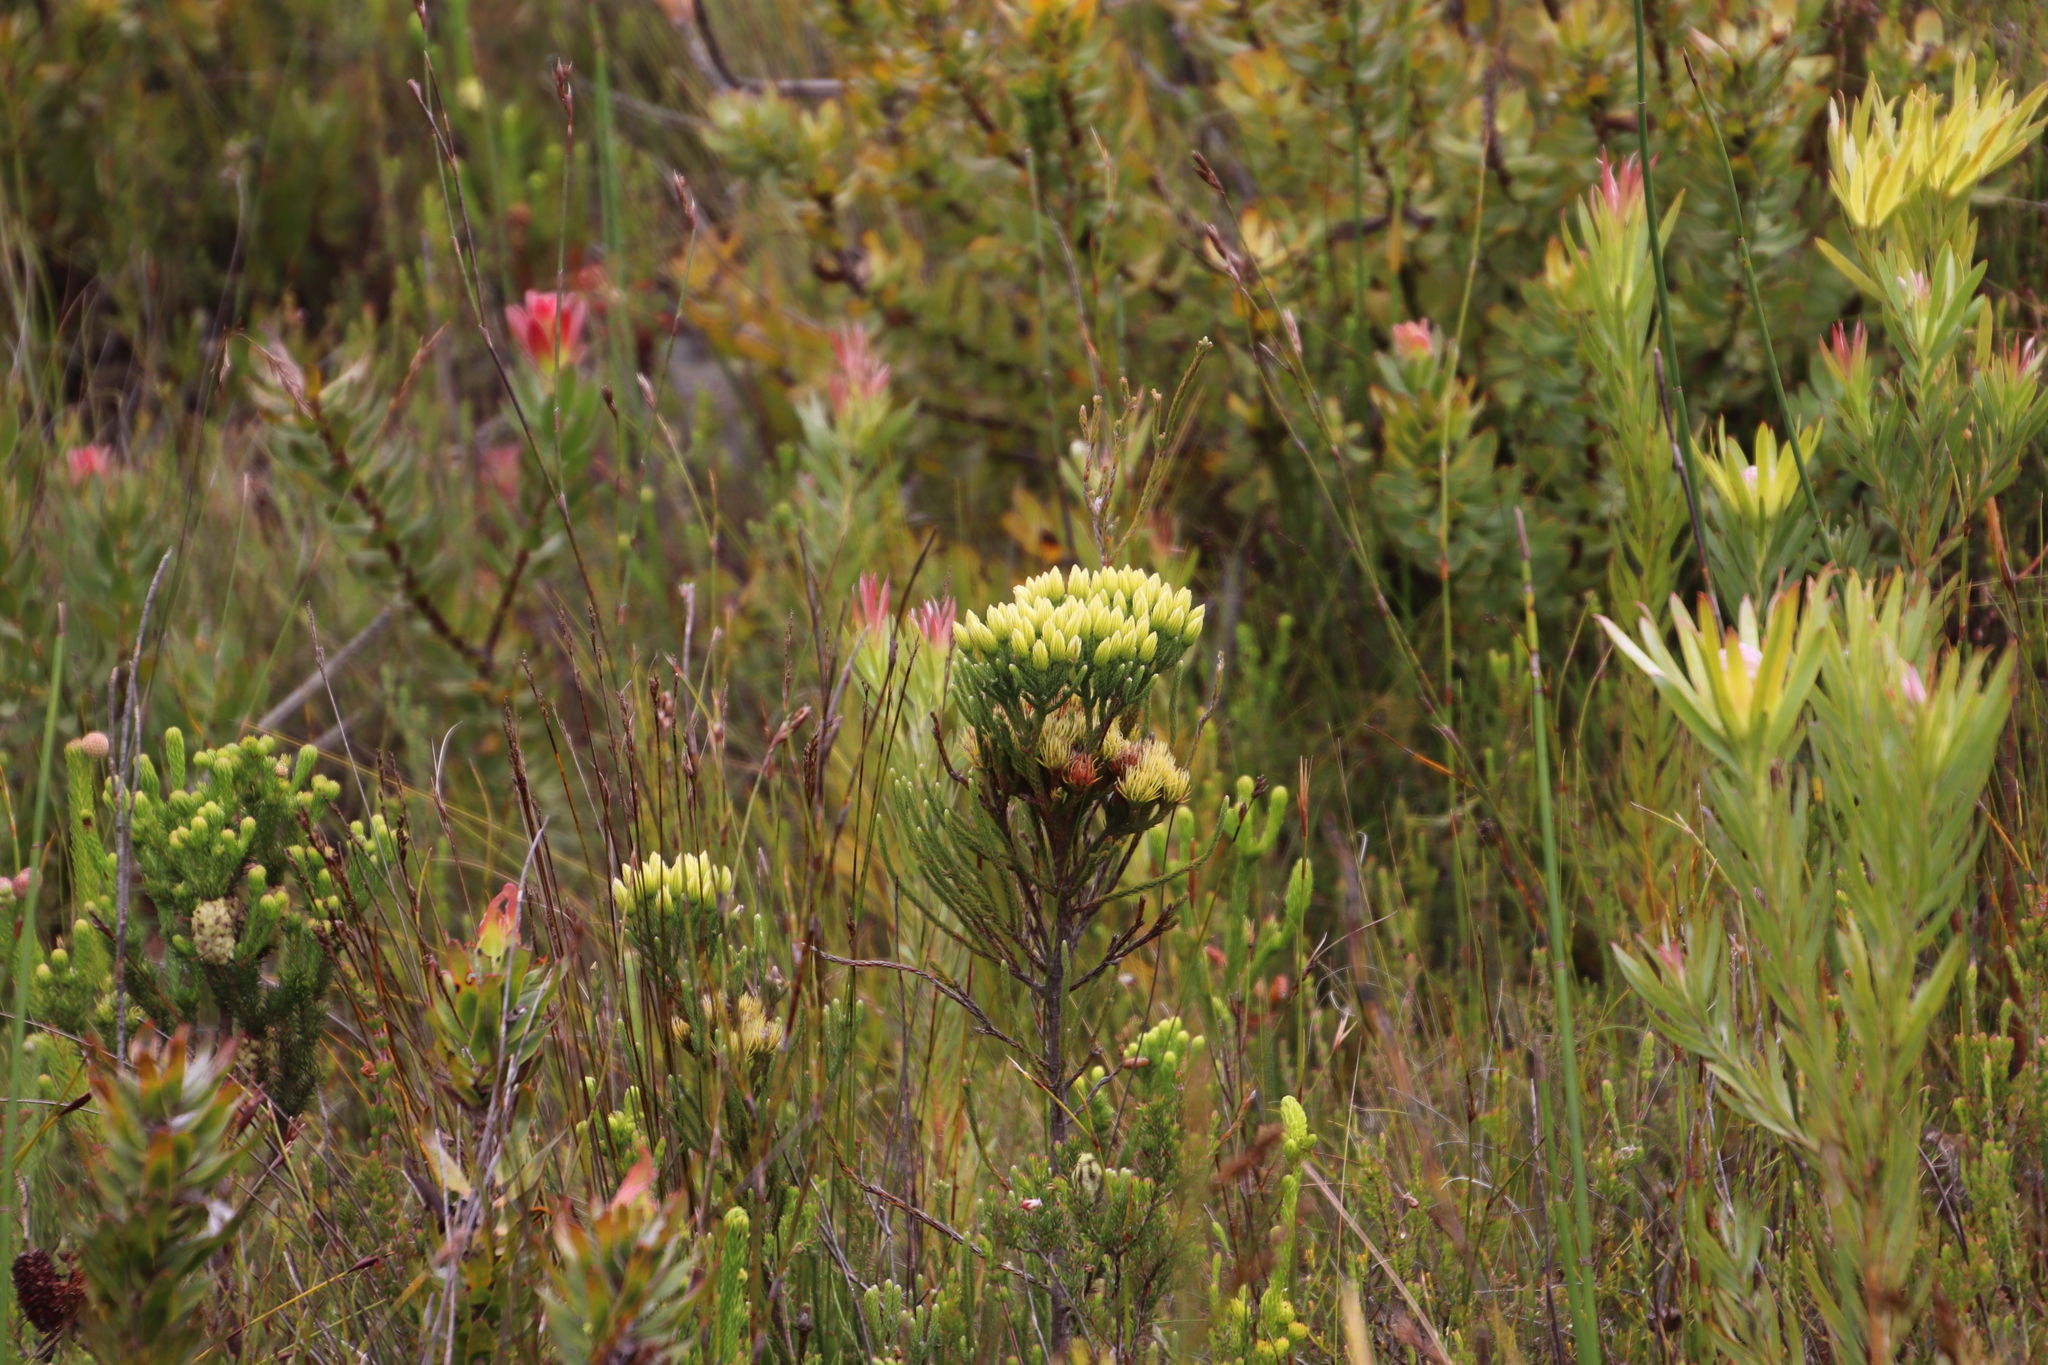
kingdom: Plantae
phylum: Tracheophyta
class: Magnoliopsida
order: Bruniales
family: Bruniaceae
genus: Brunia
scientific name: Brunia paleacea
